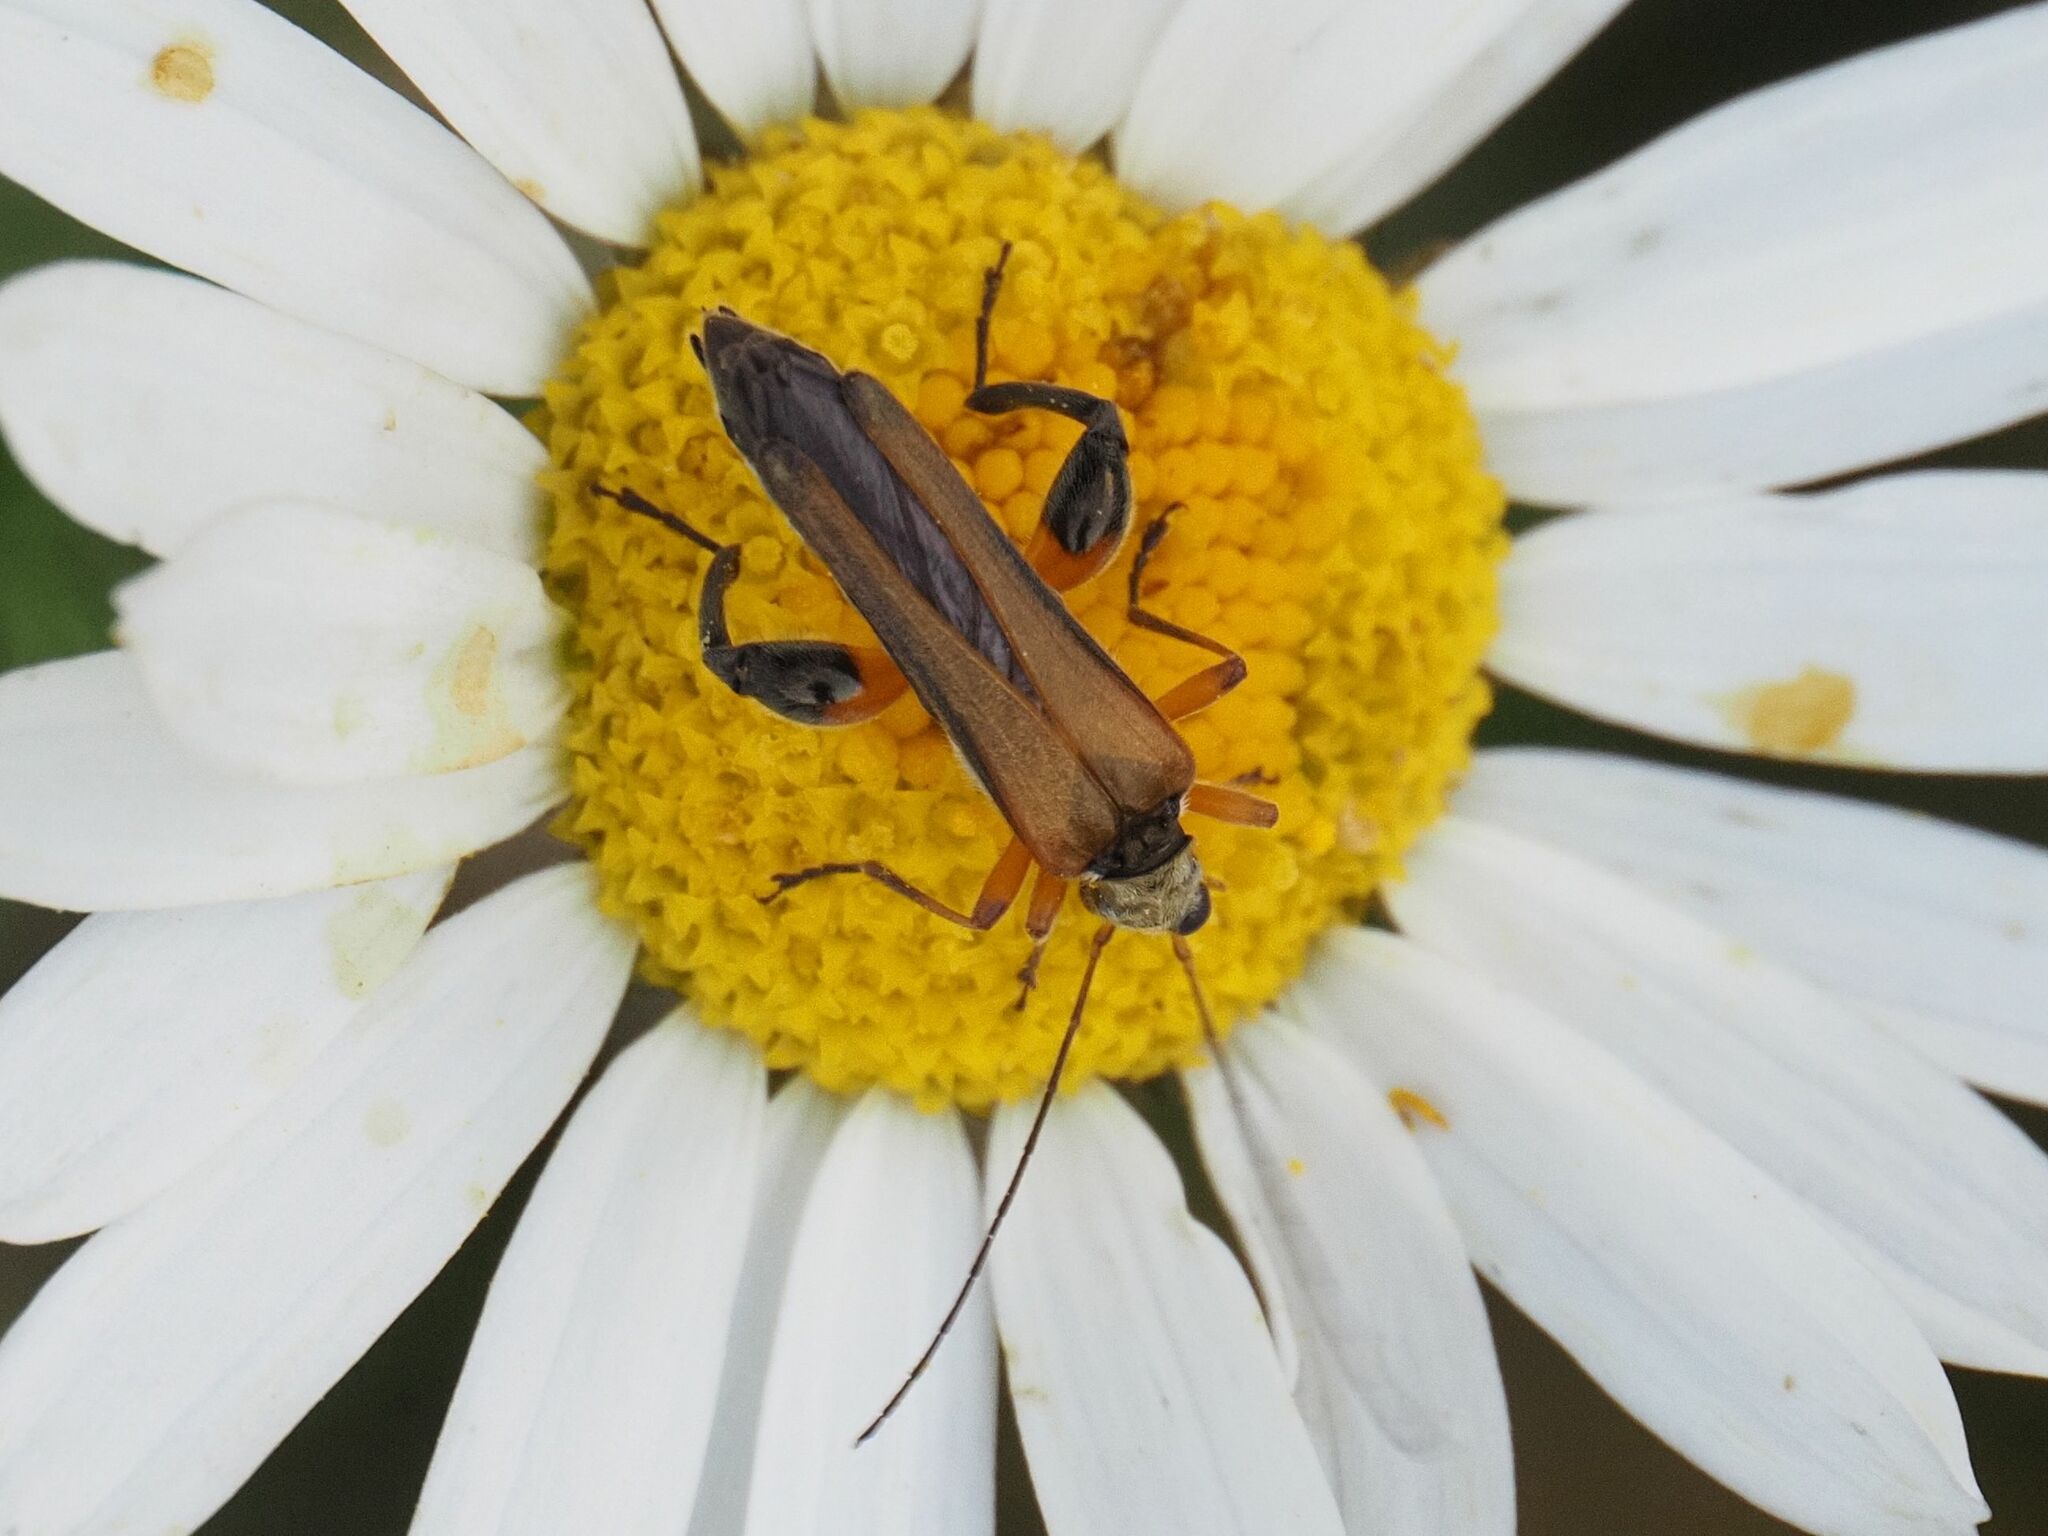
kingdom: Animalia
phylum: Arthropoda
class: Insecta
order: Coleoptera
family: Oedemeridae
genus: Oedemera
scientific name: Oedemera podagrariae
